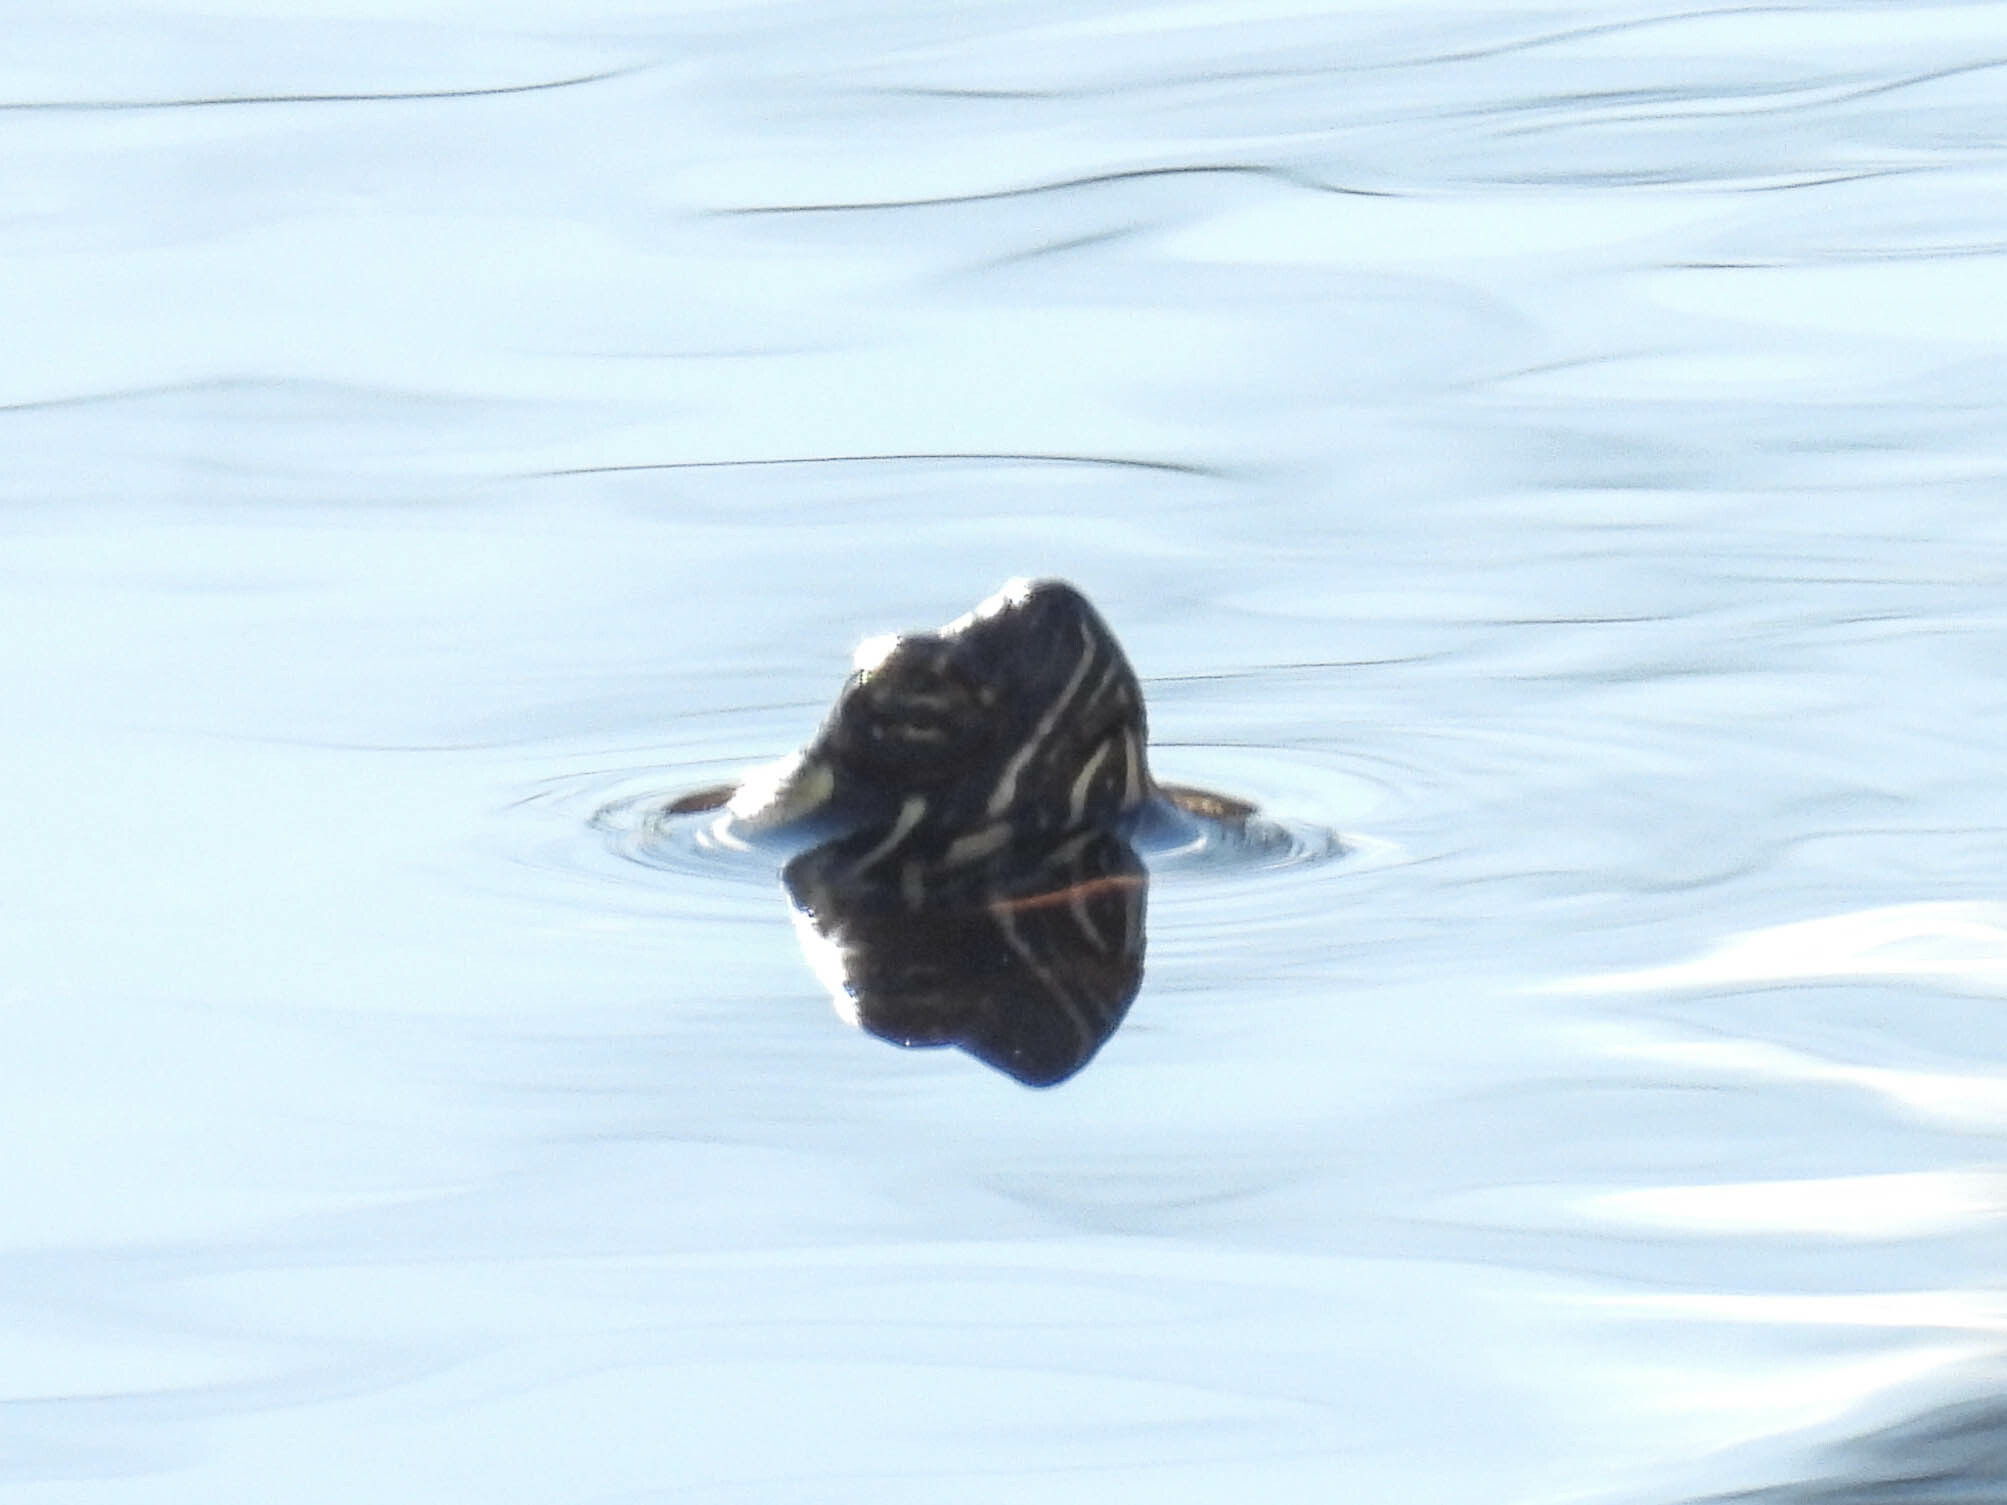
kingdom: Animalia
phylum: Chordata
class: Testudines
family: Emydidae
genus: Chrysemys
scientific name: Chrysemys picta
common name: Painted turtle
